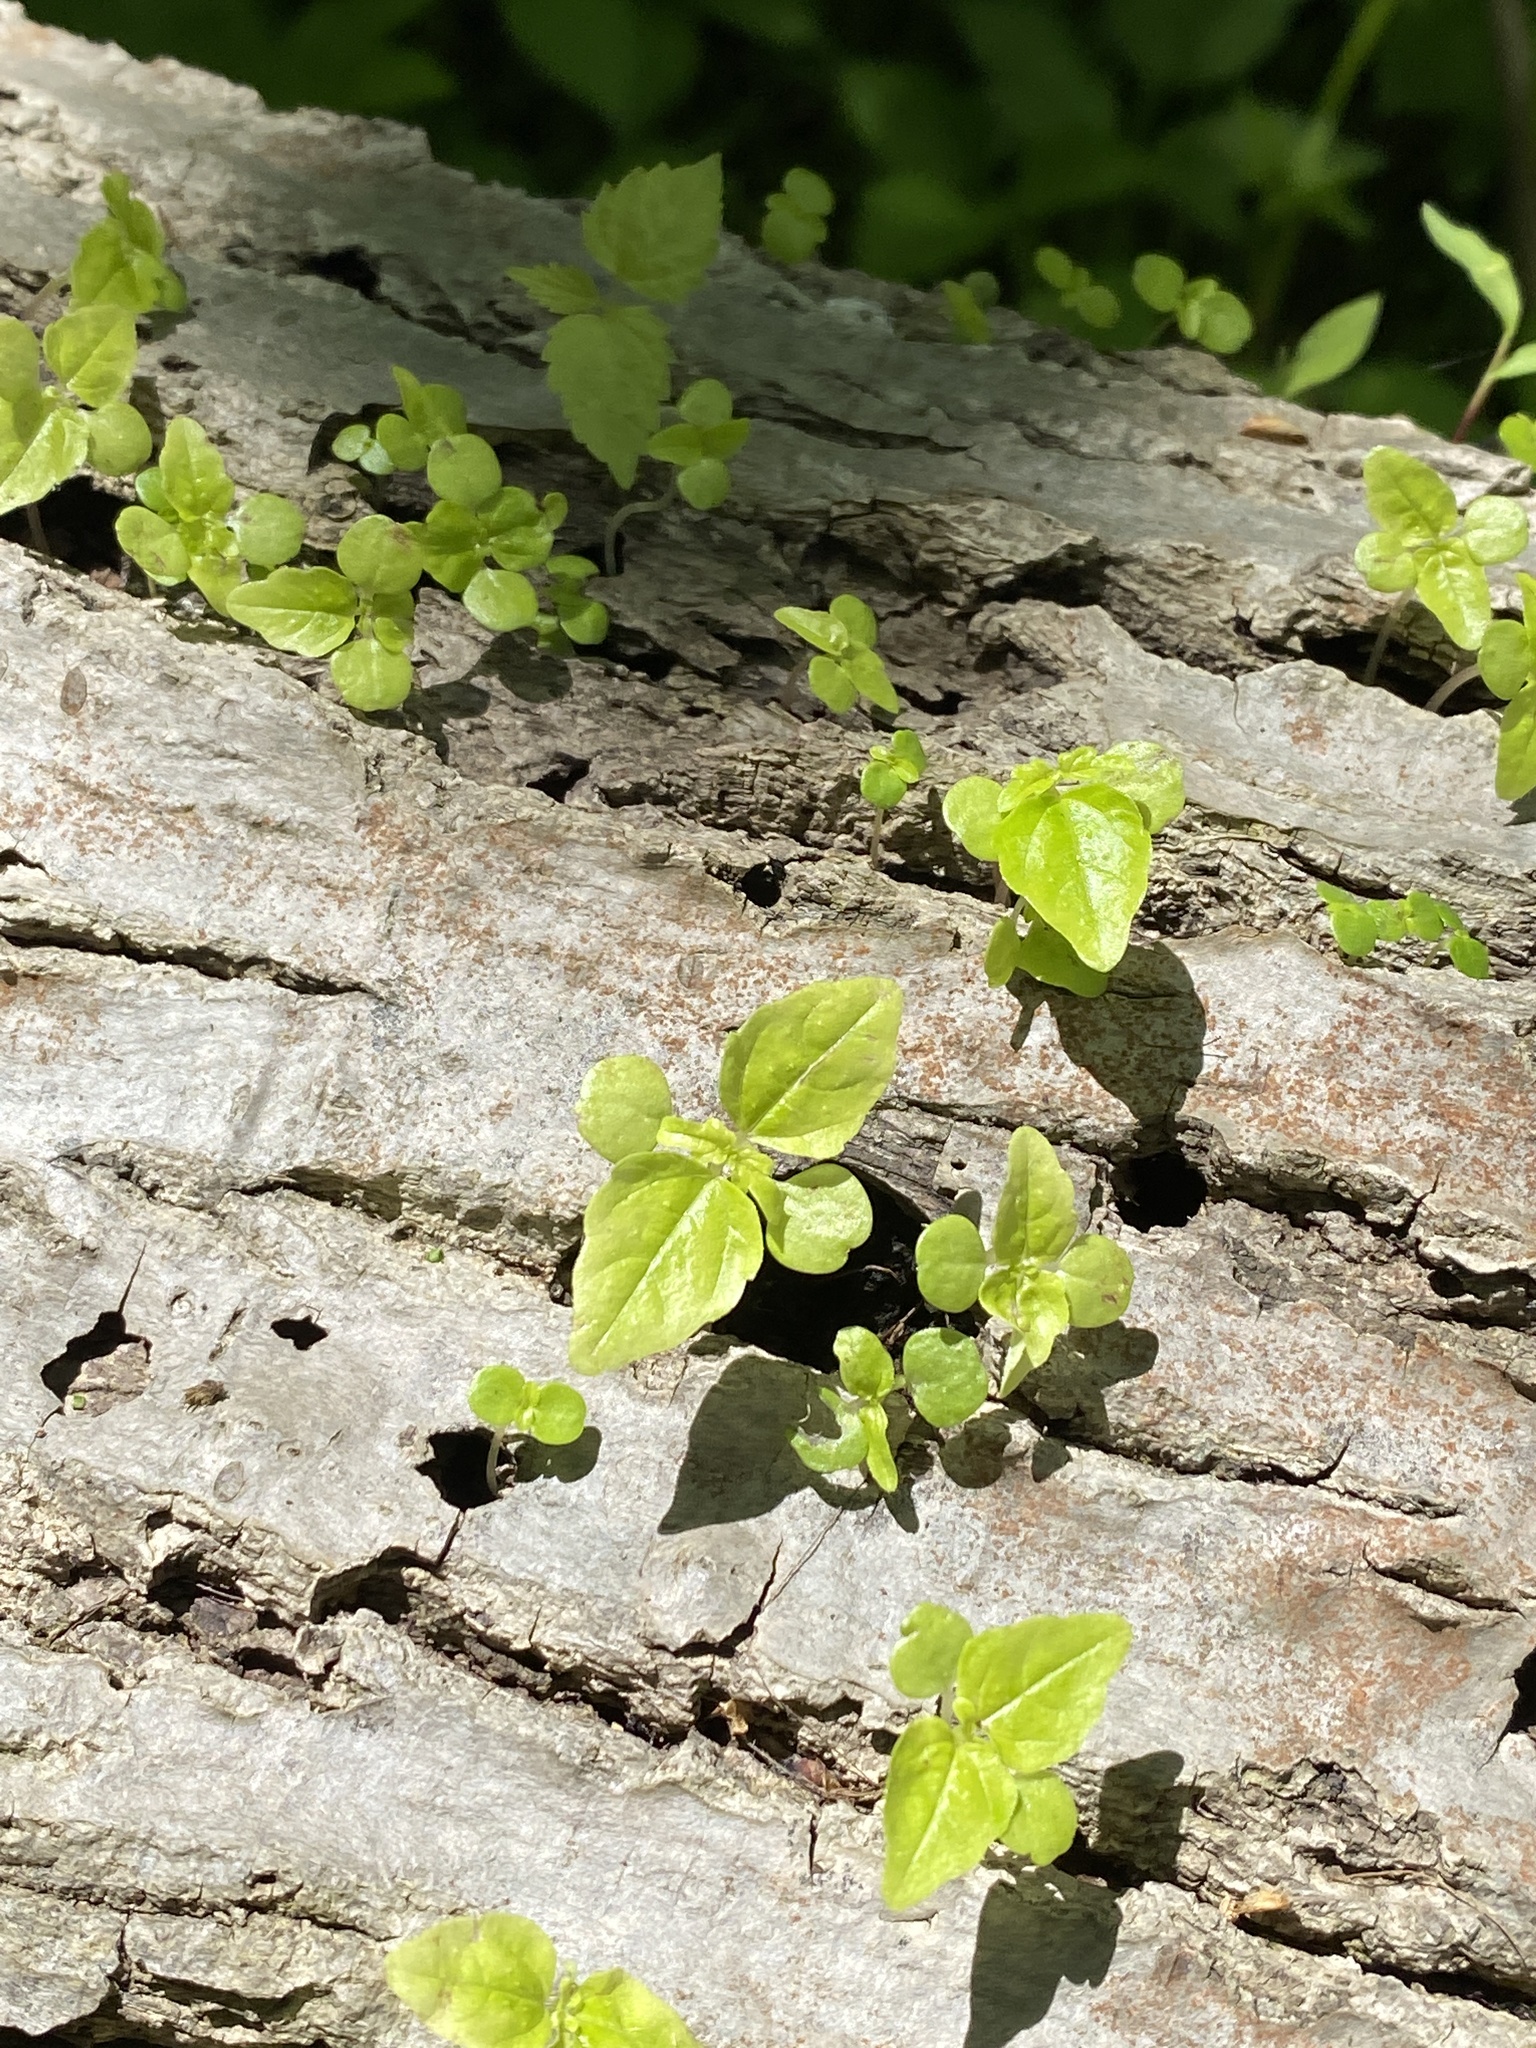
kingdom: Plantae
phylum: Tracheophyta
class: Magnoliopsida
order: Rosales
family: Urticaceae
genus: Pilea
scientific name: Pilea pumila
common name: Clearweed
